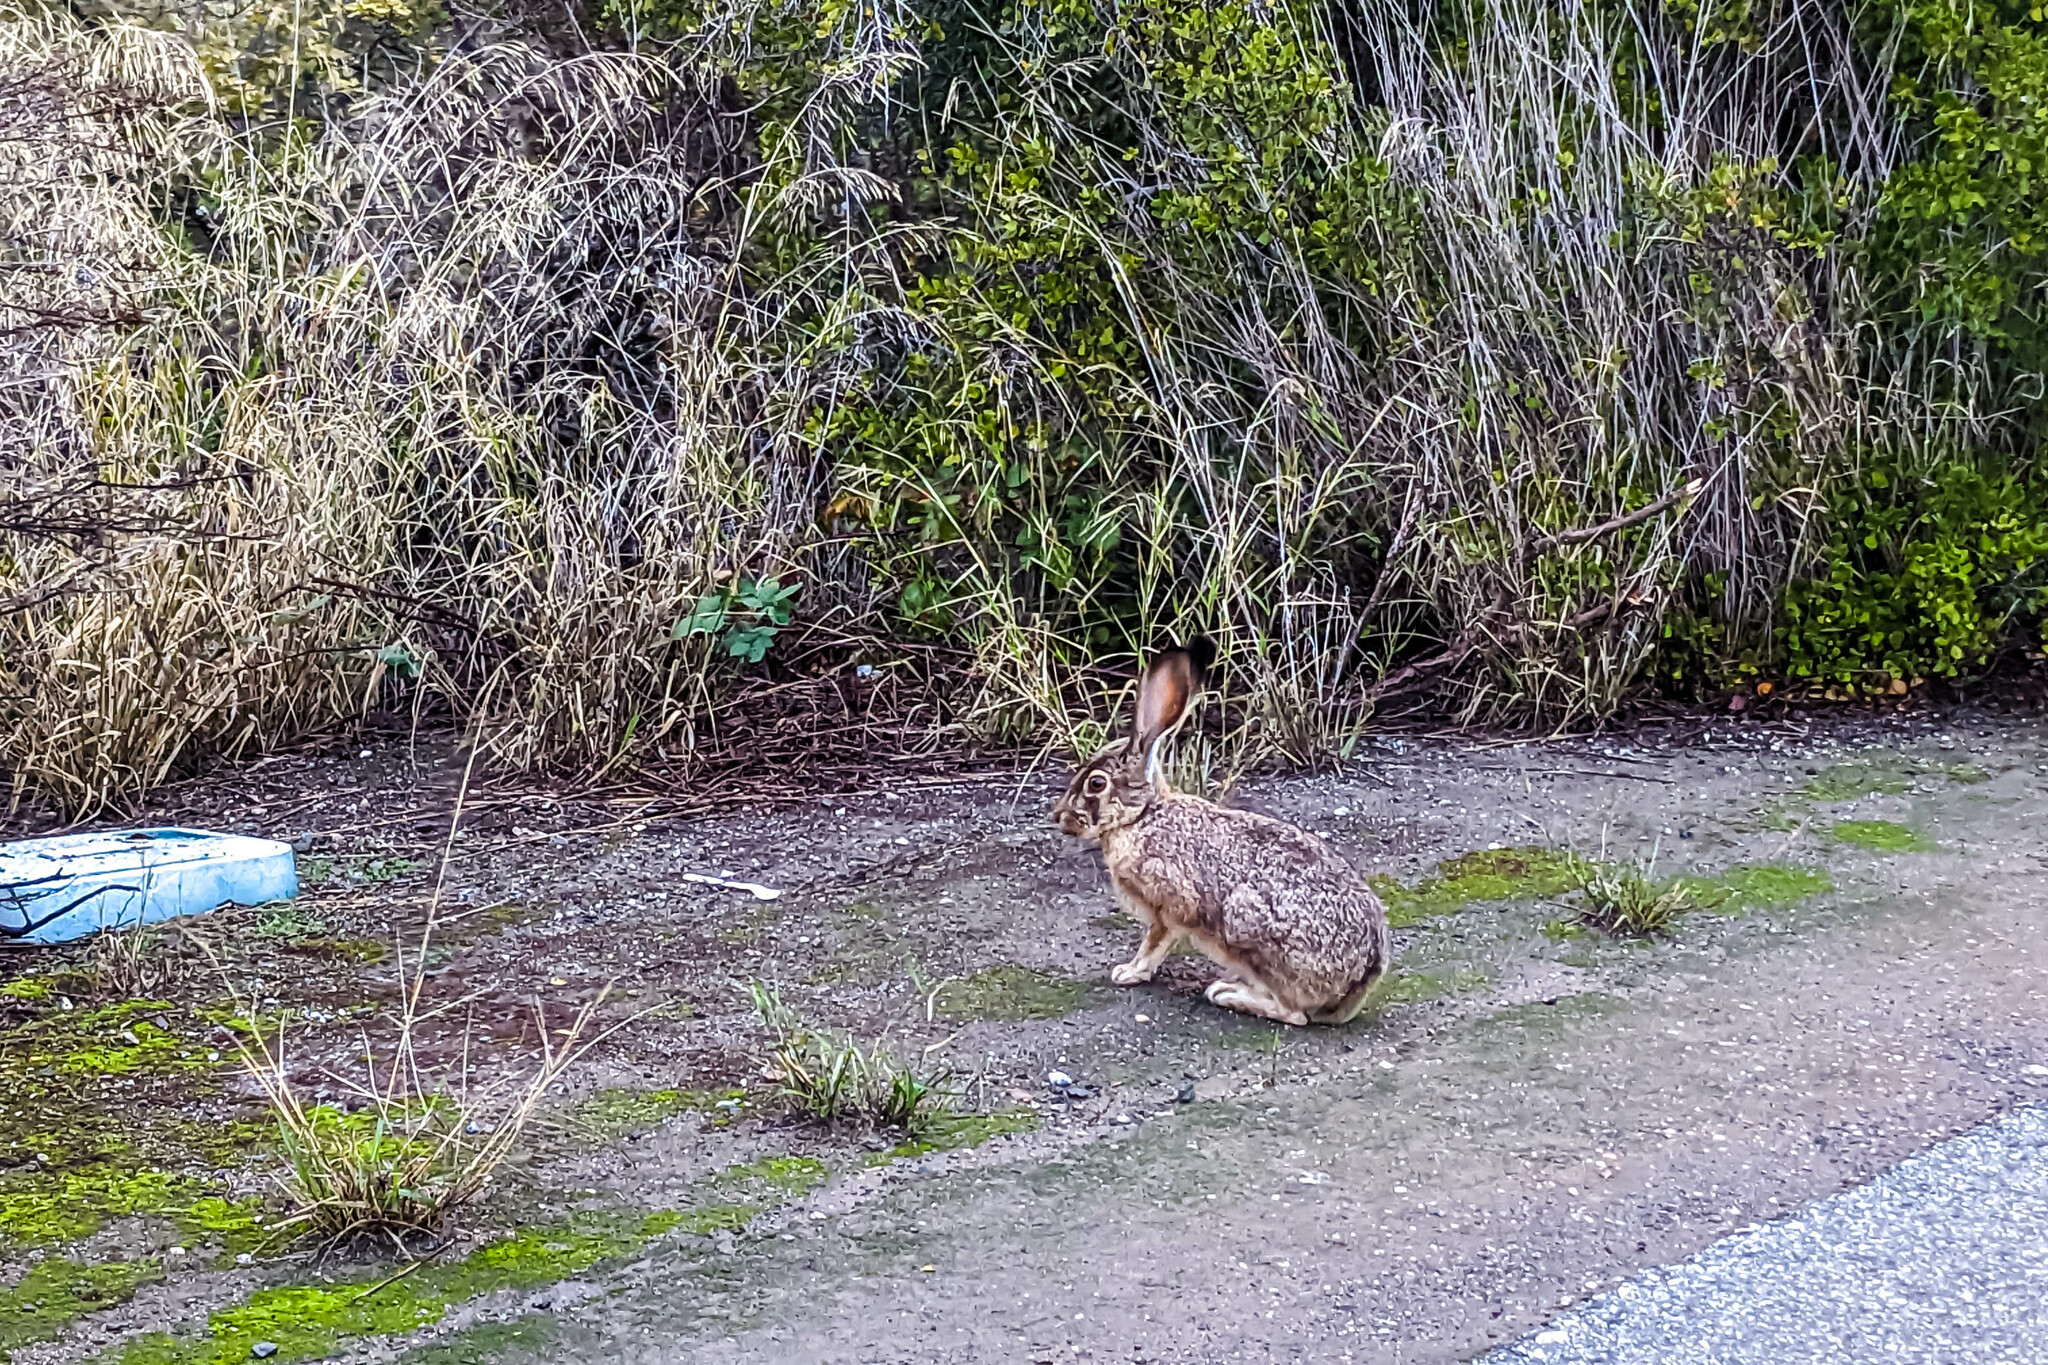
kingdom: Animalia
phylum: Chordata
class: Mammalia
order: Lagomorpha
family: Leporidae
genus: Lepus
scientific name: Lepus californicus
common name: Black-tailed jackrabbit
